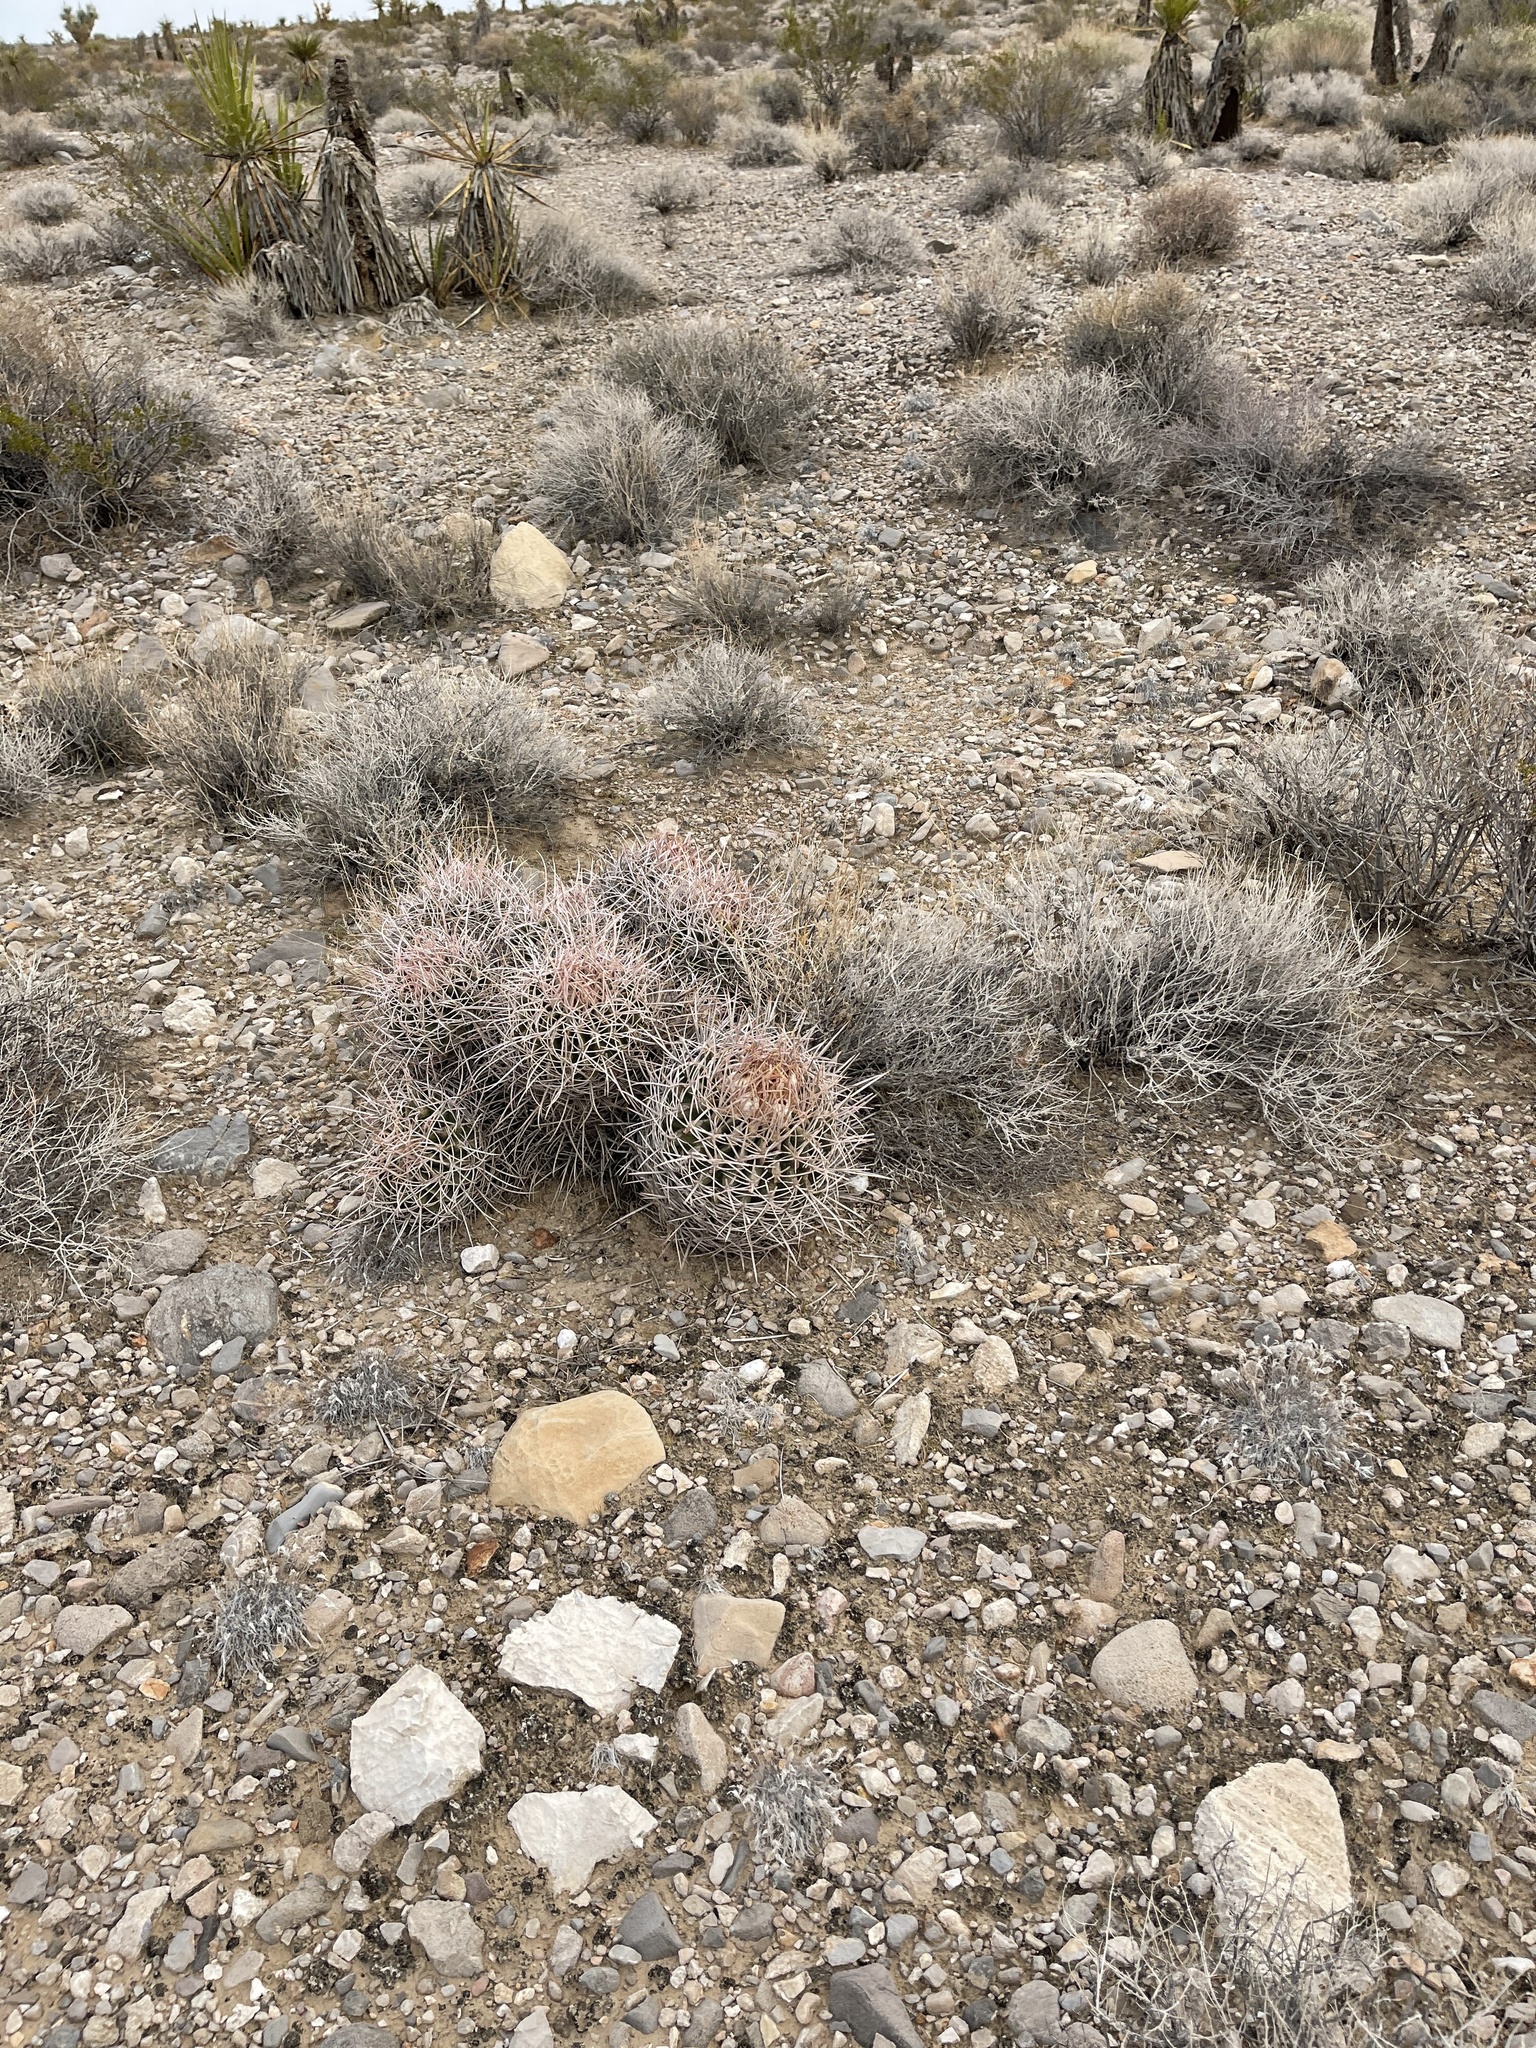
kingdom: Plantae
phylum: Tracheophyta
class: Magnoliopsida
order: Caryophyllales
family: Cactaceae
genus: Echinocactus
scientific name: Echinocactus polycephalus
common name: Cottontop cactus
